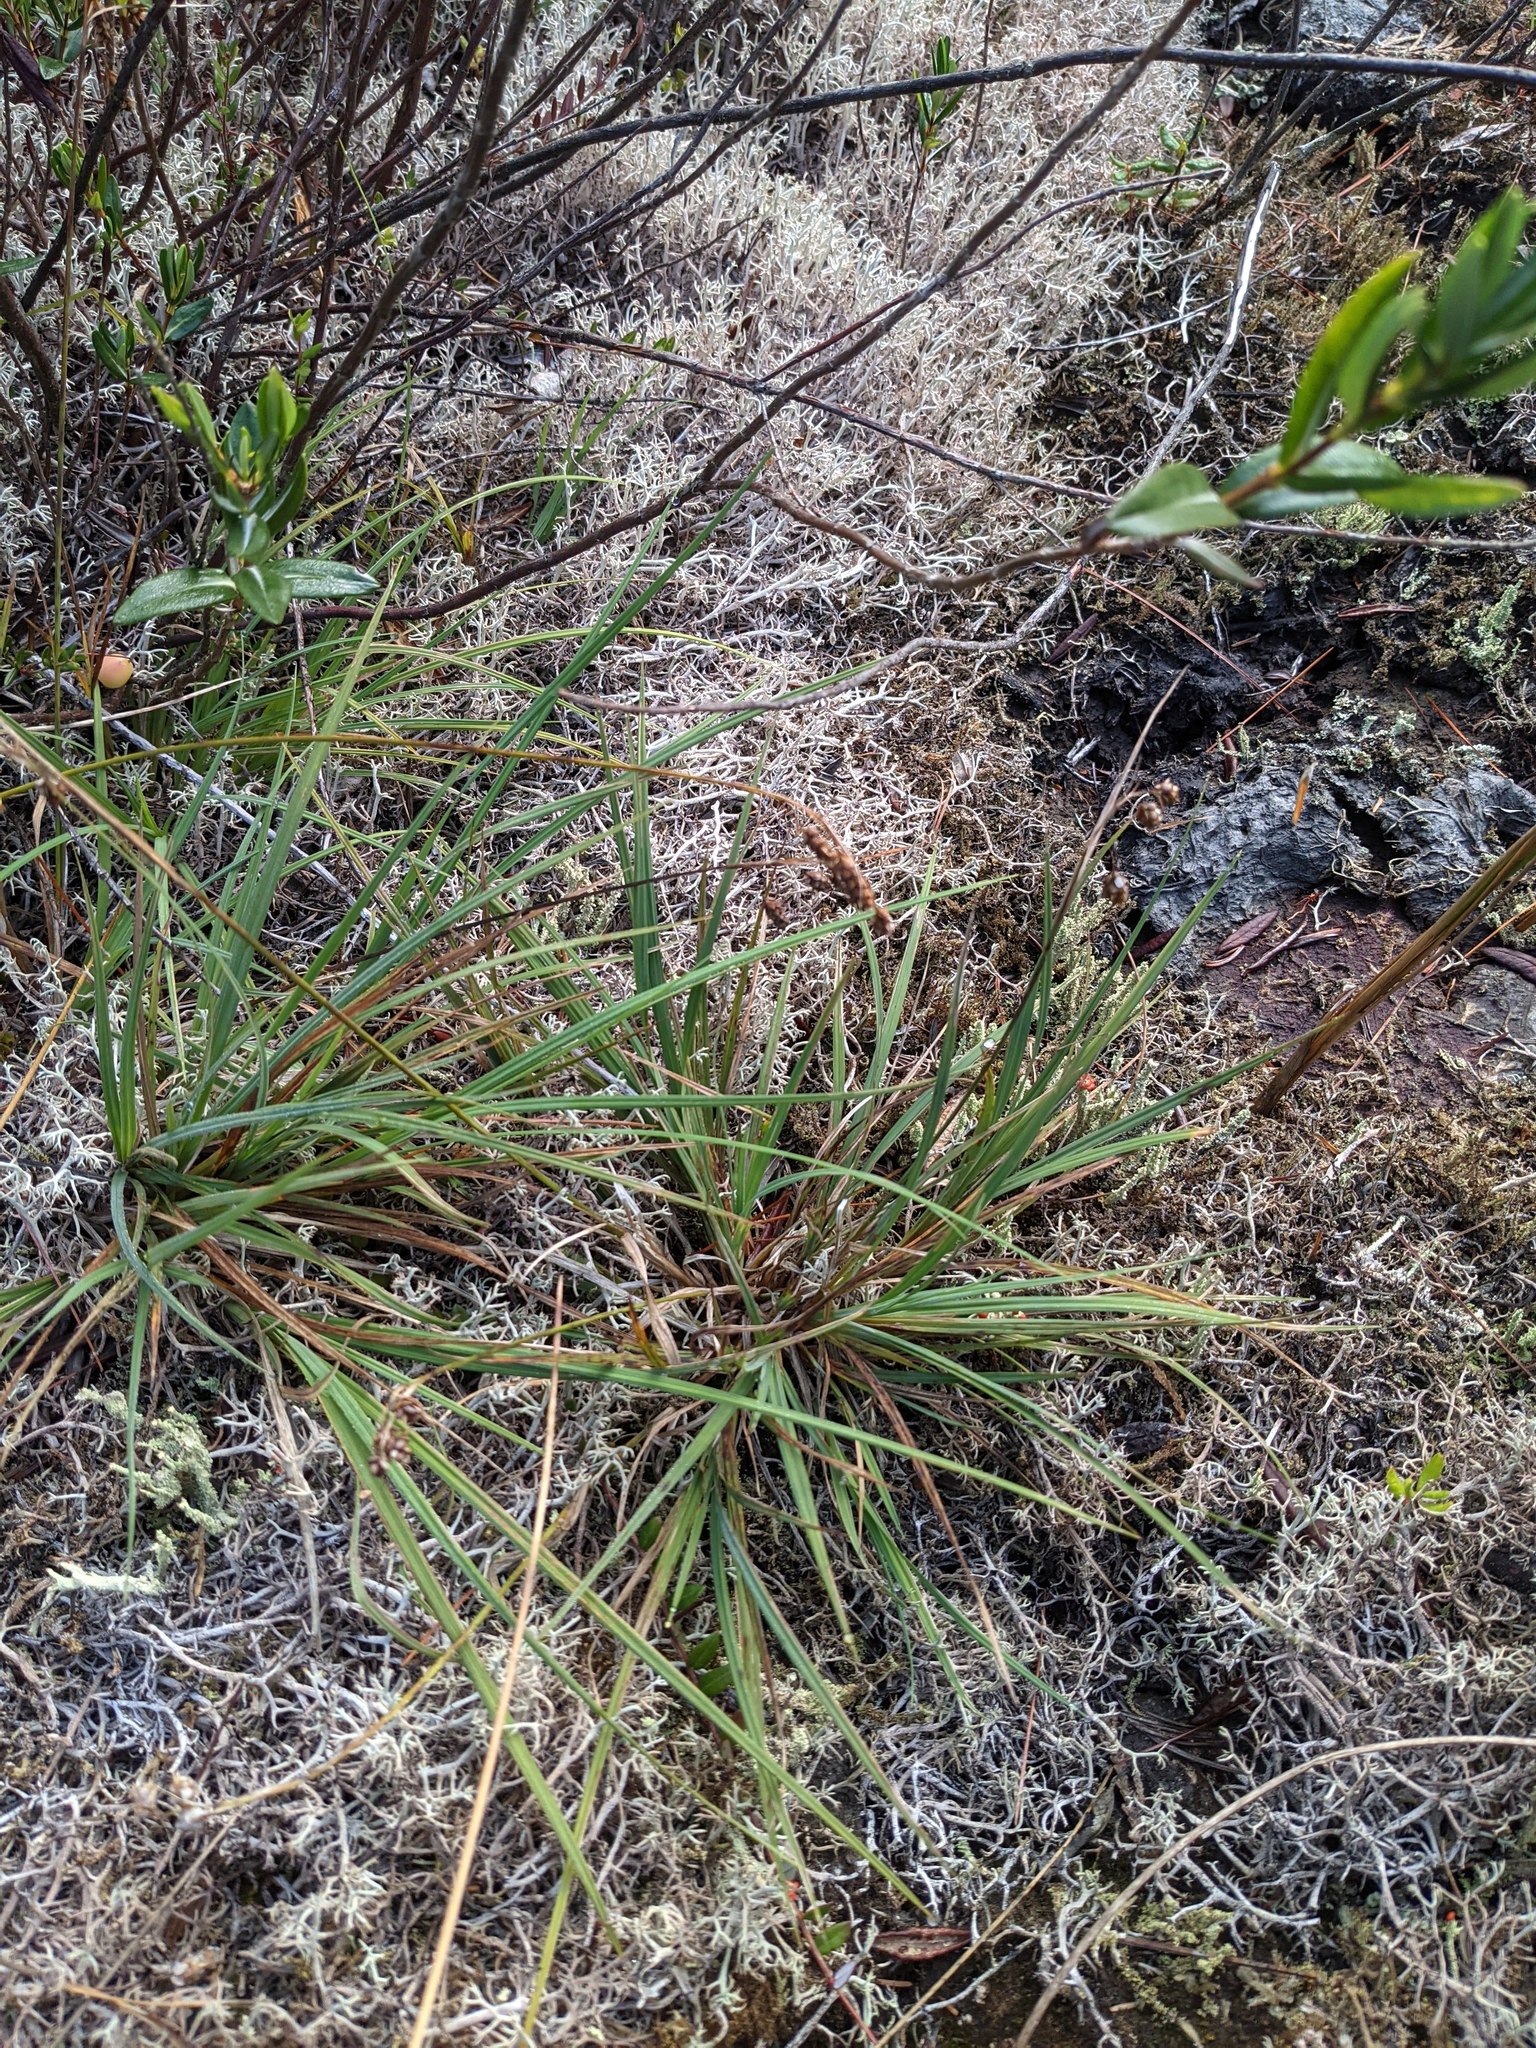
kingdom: Plantae
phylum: Tracheophyta
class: Liliopsida
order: Poales
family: Cyperaceae
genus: Carex
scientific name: Carex magellanica
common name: Bog sedge
